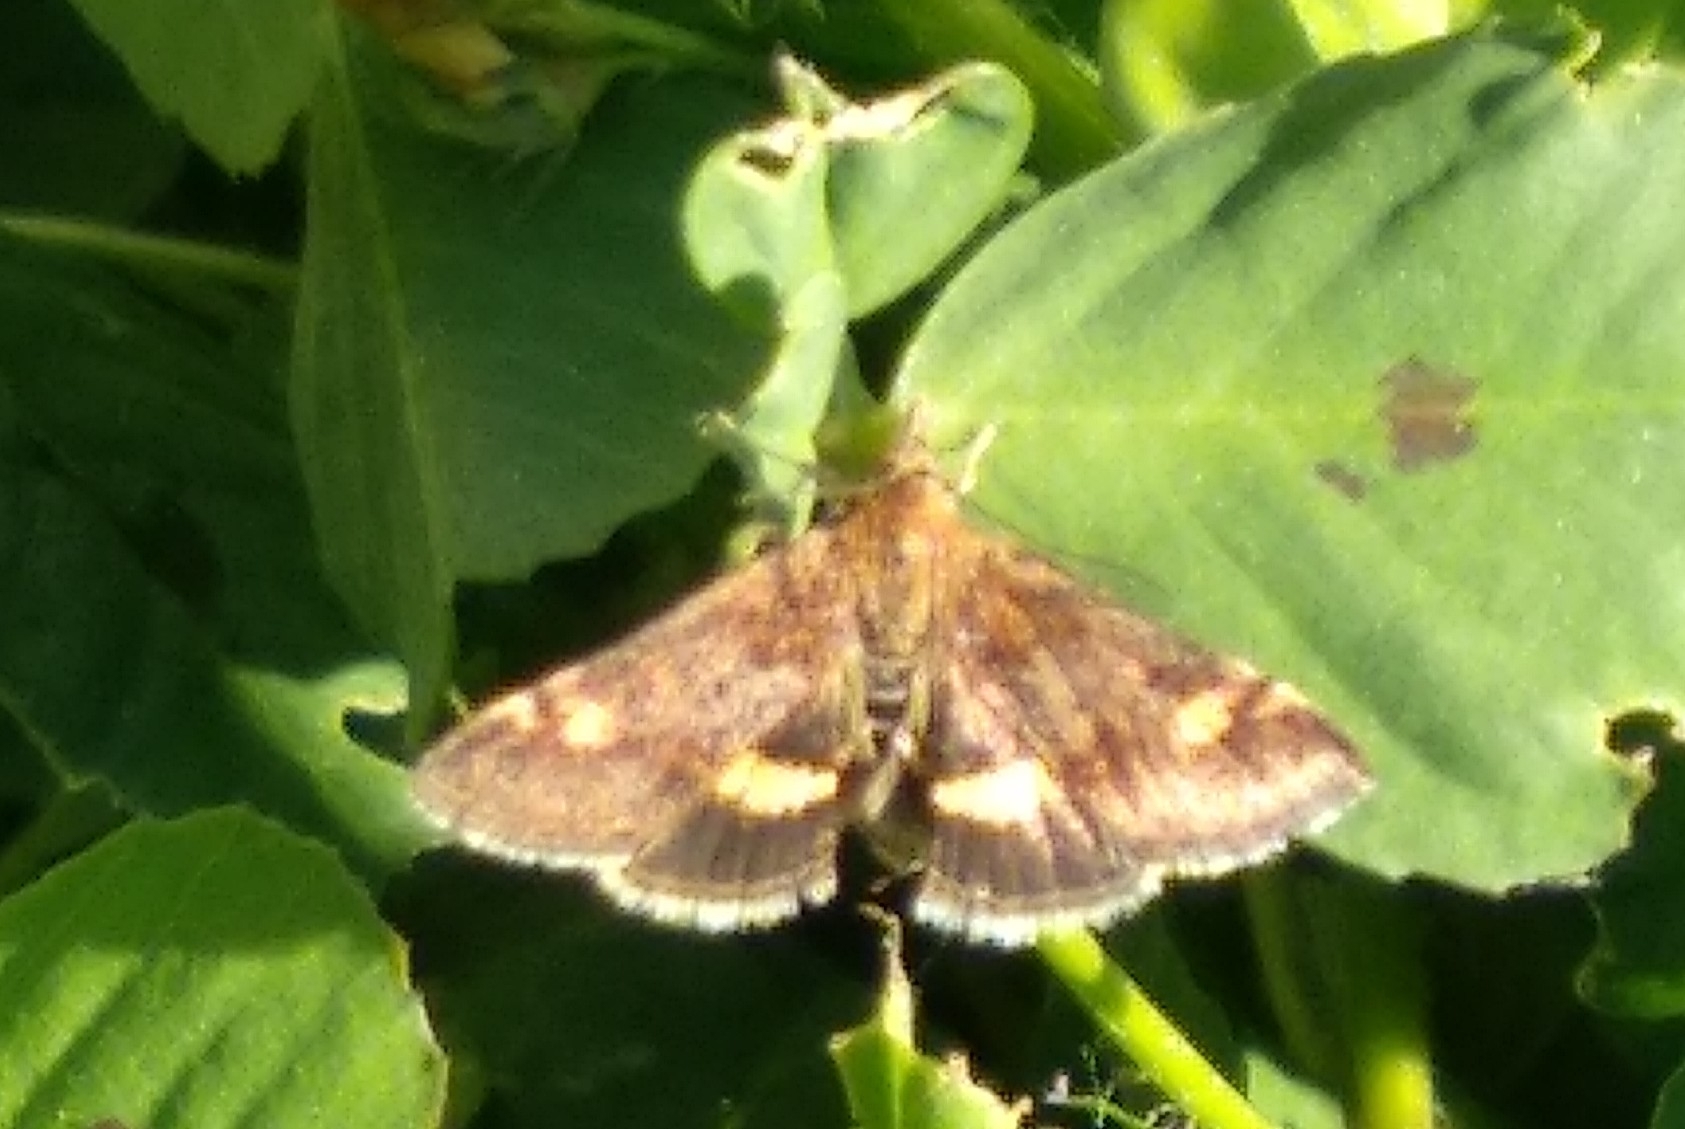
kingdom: Animalia
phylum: Arthropoda
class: Insecta
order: Lepidoptera
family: Crambidae
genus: Pyrausta
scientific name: Pyrausta aurata
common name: Small purple & gold
